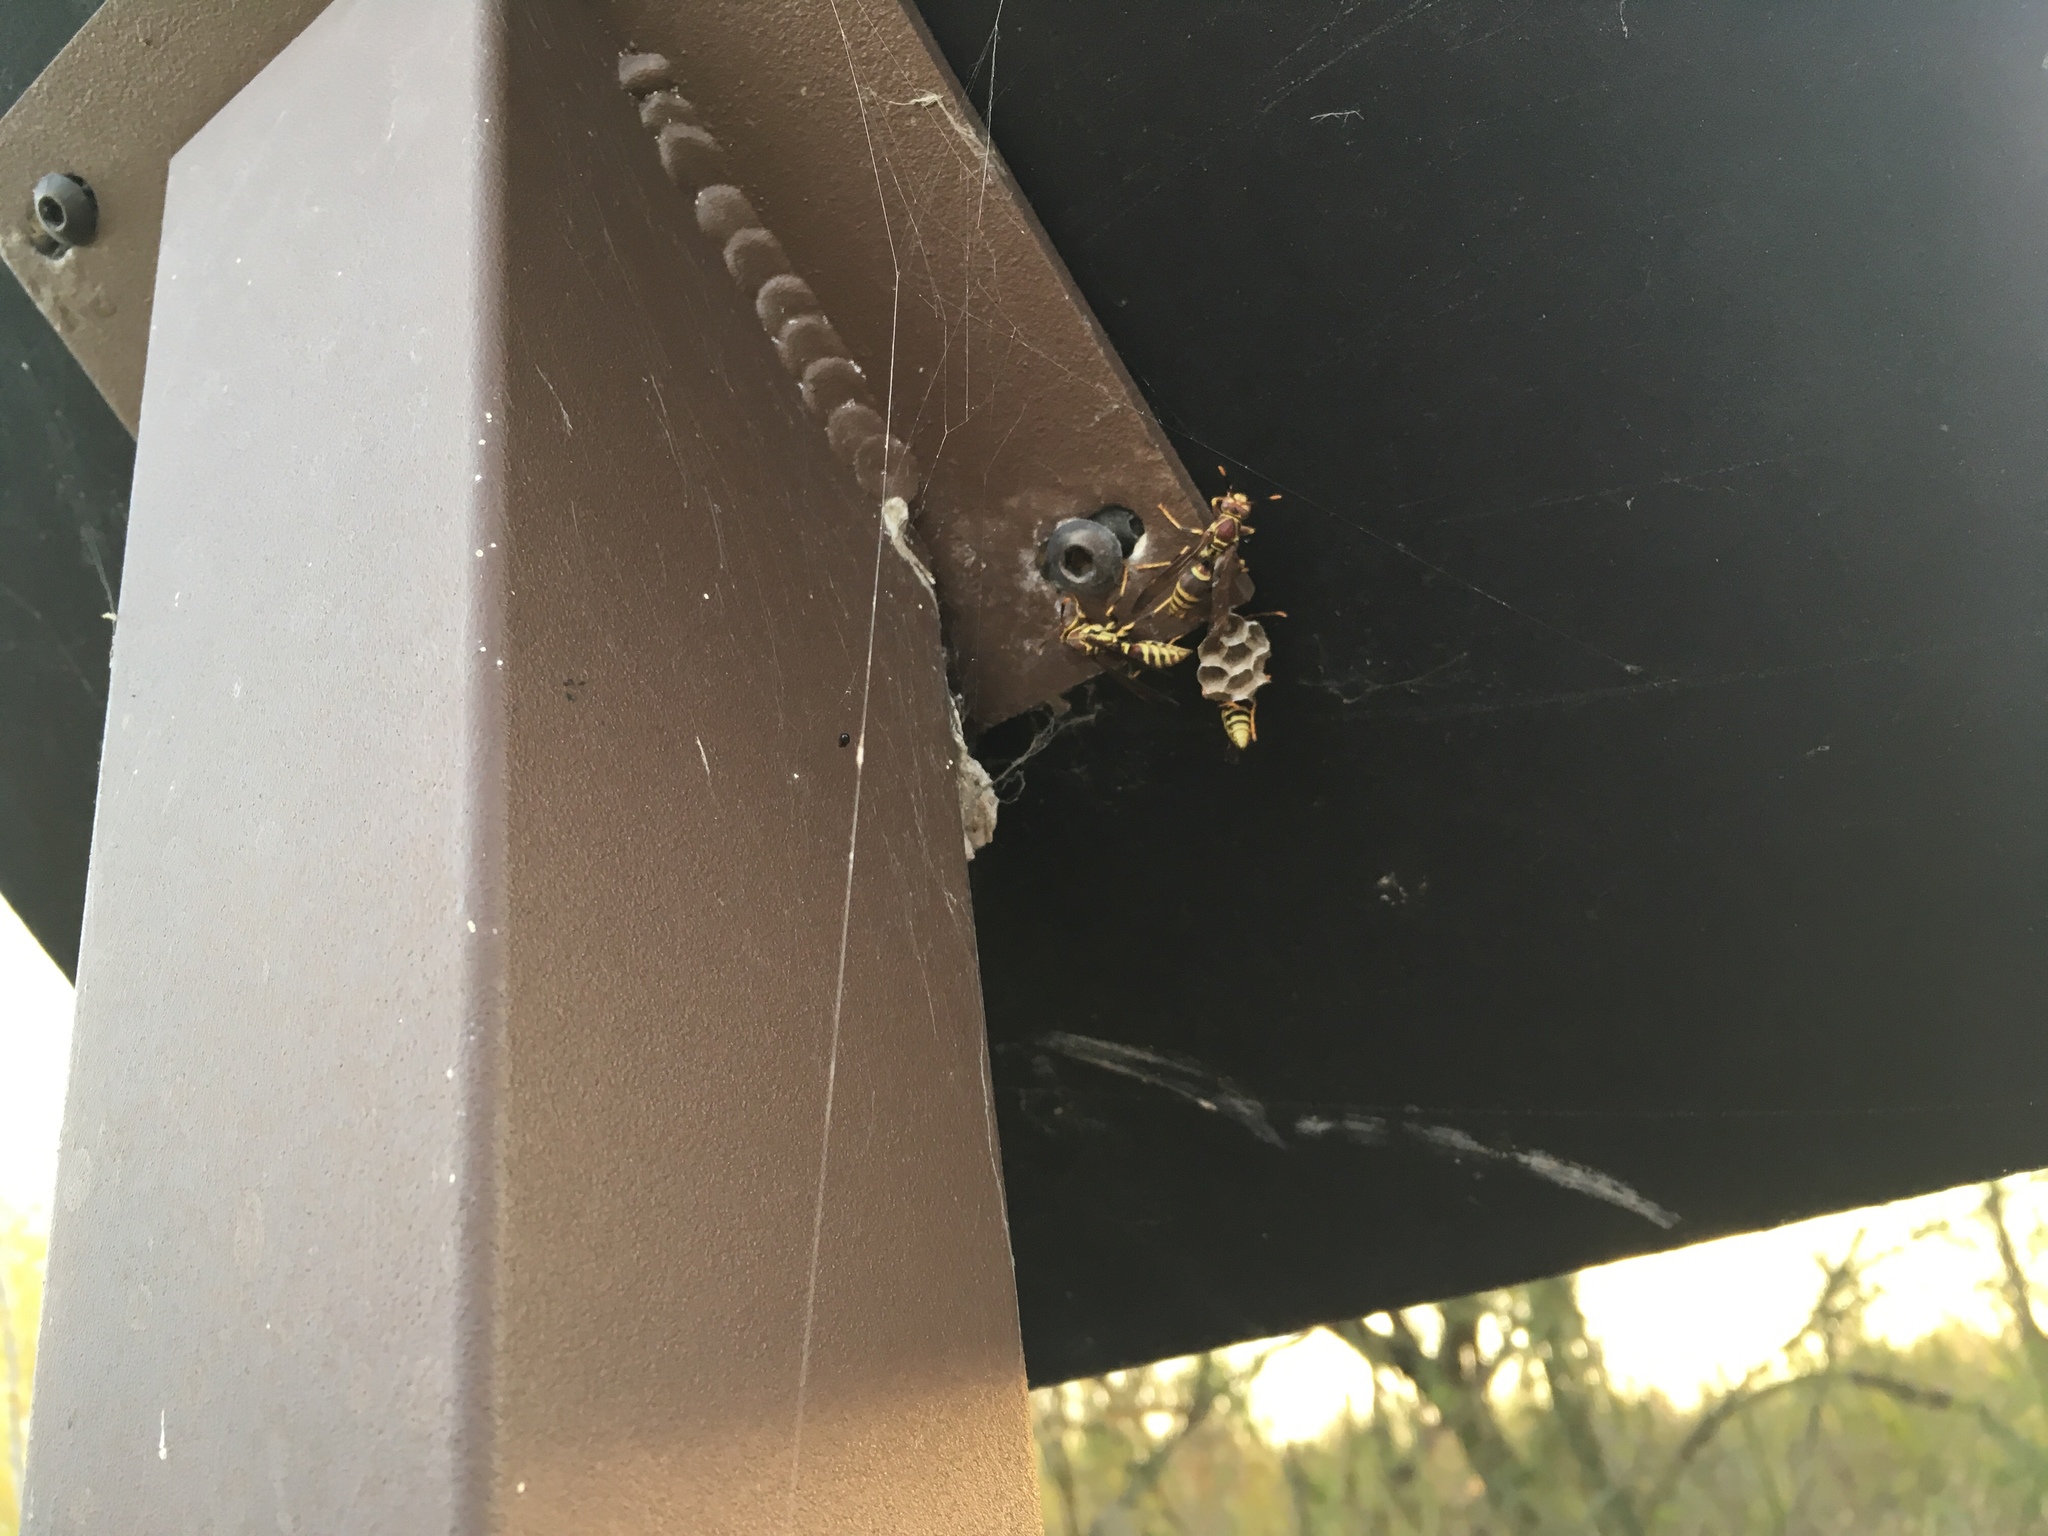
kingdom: Animalia
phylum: Arthropoda
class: Insecta
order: Hymenoptera
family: Eumenidae
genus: Polistes
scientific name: Polistes exclamans
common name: Paper wasp
